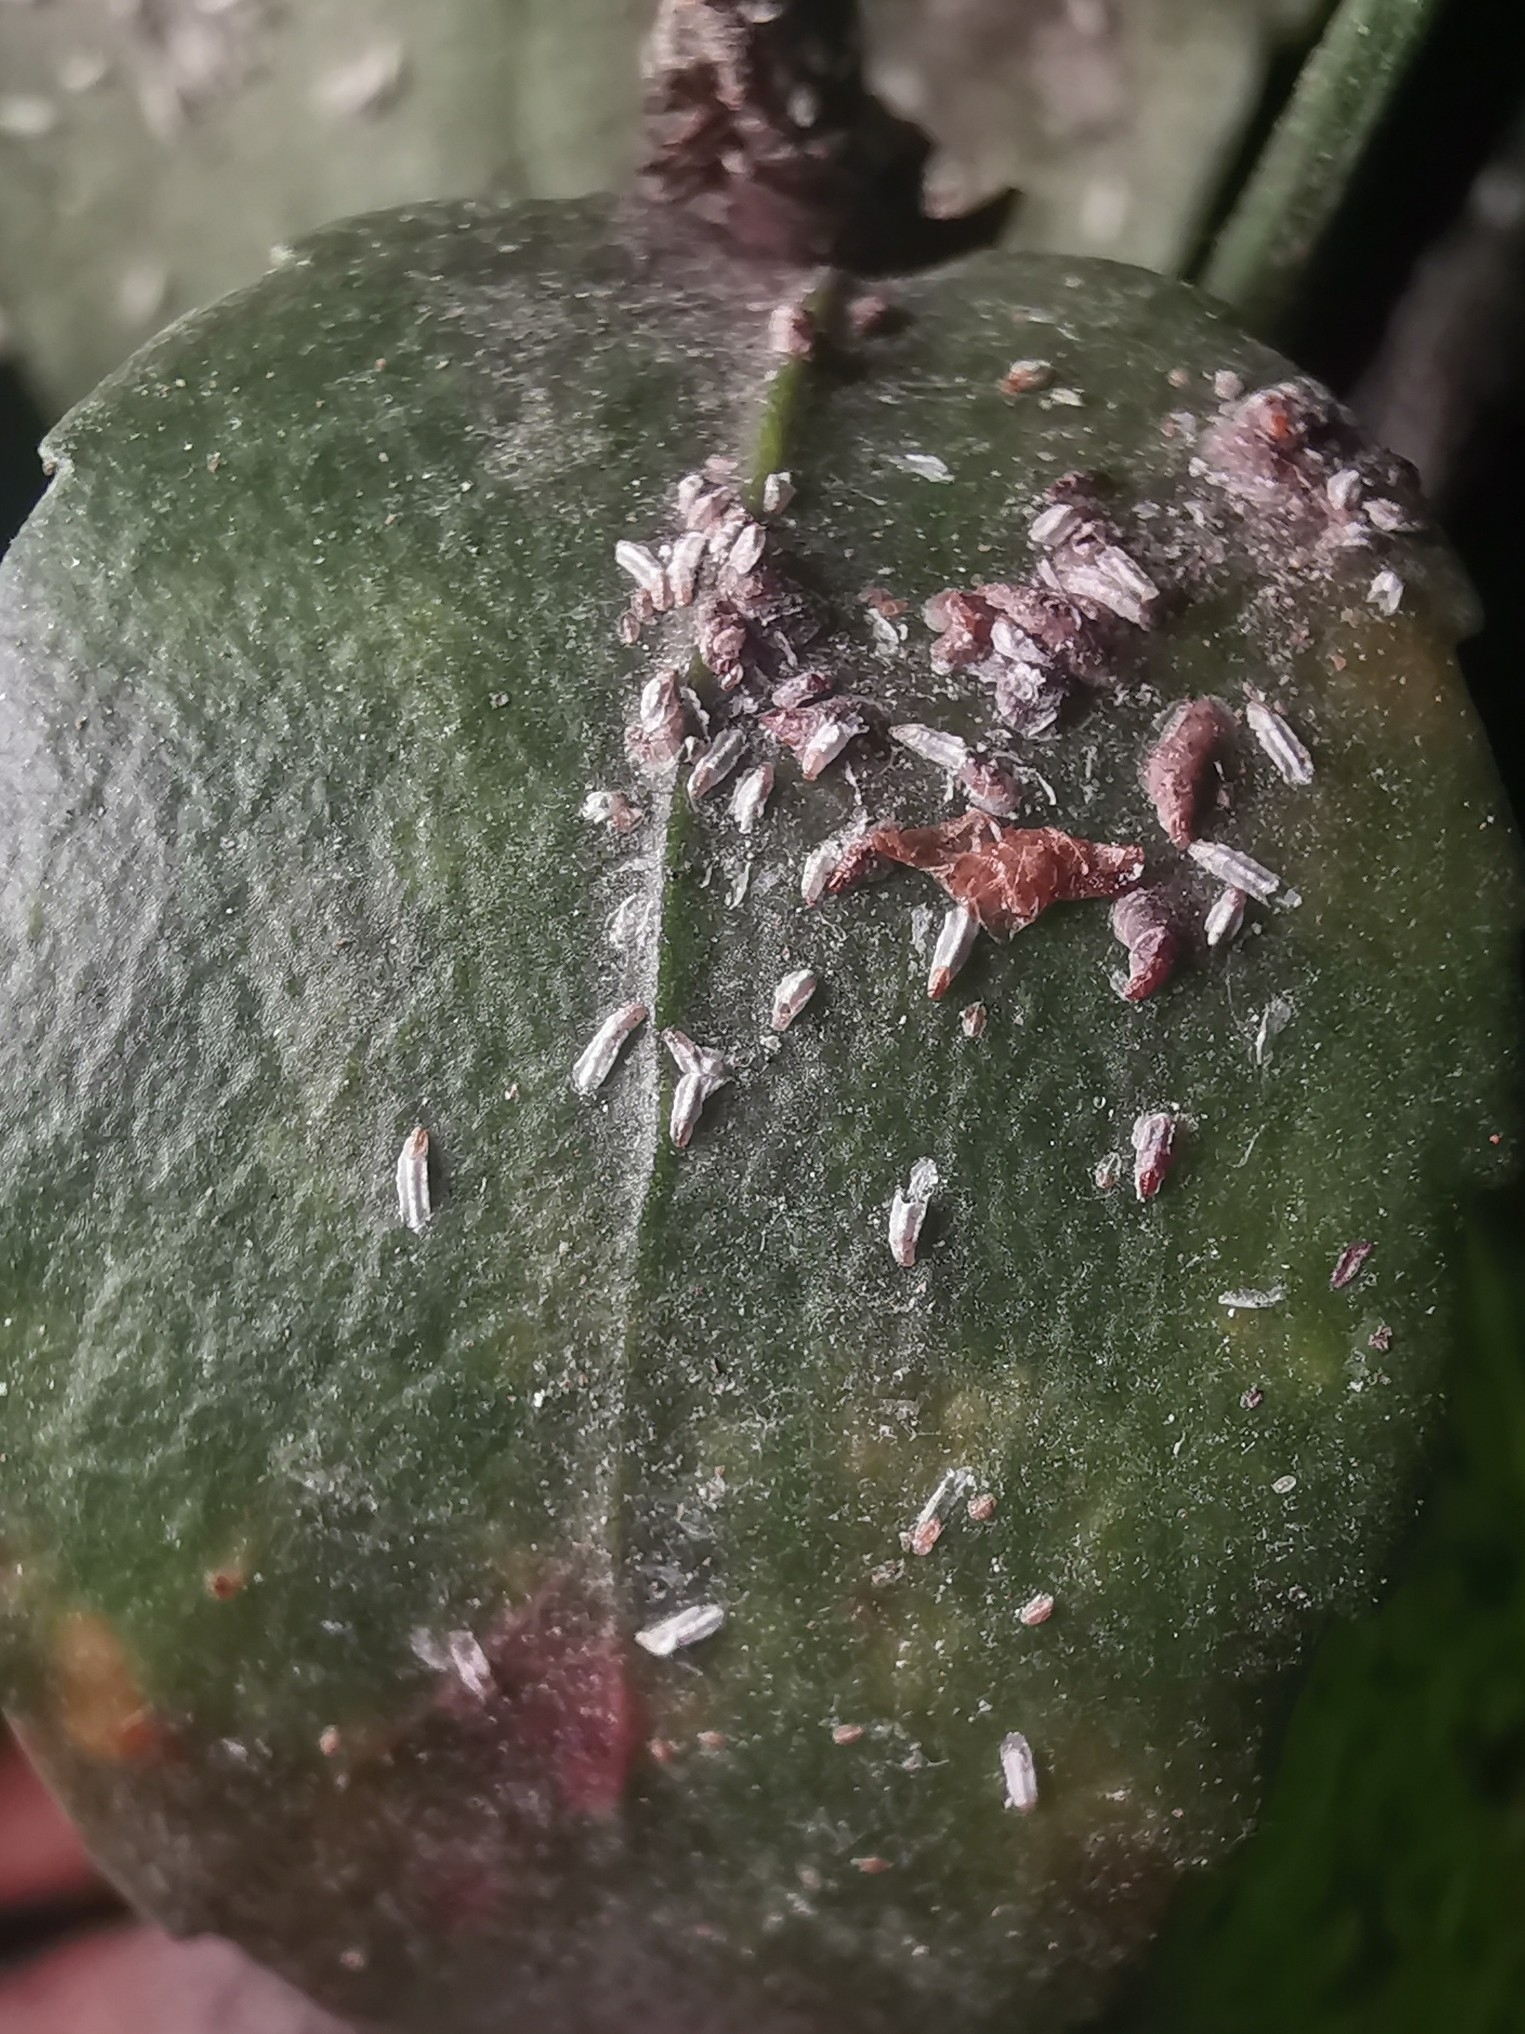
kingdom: Animalia
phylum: Arthropoda
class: Insecta
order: Hemiptera
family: Diaspididae
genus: Unaspis
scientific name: Unaspis euonymi
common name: Euonymus scale
